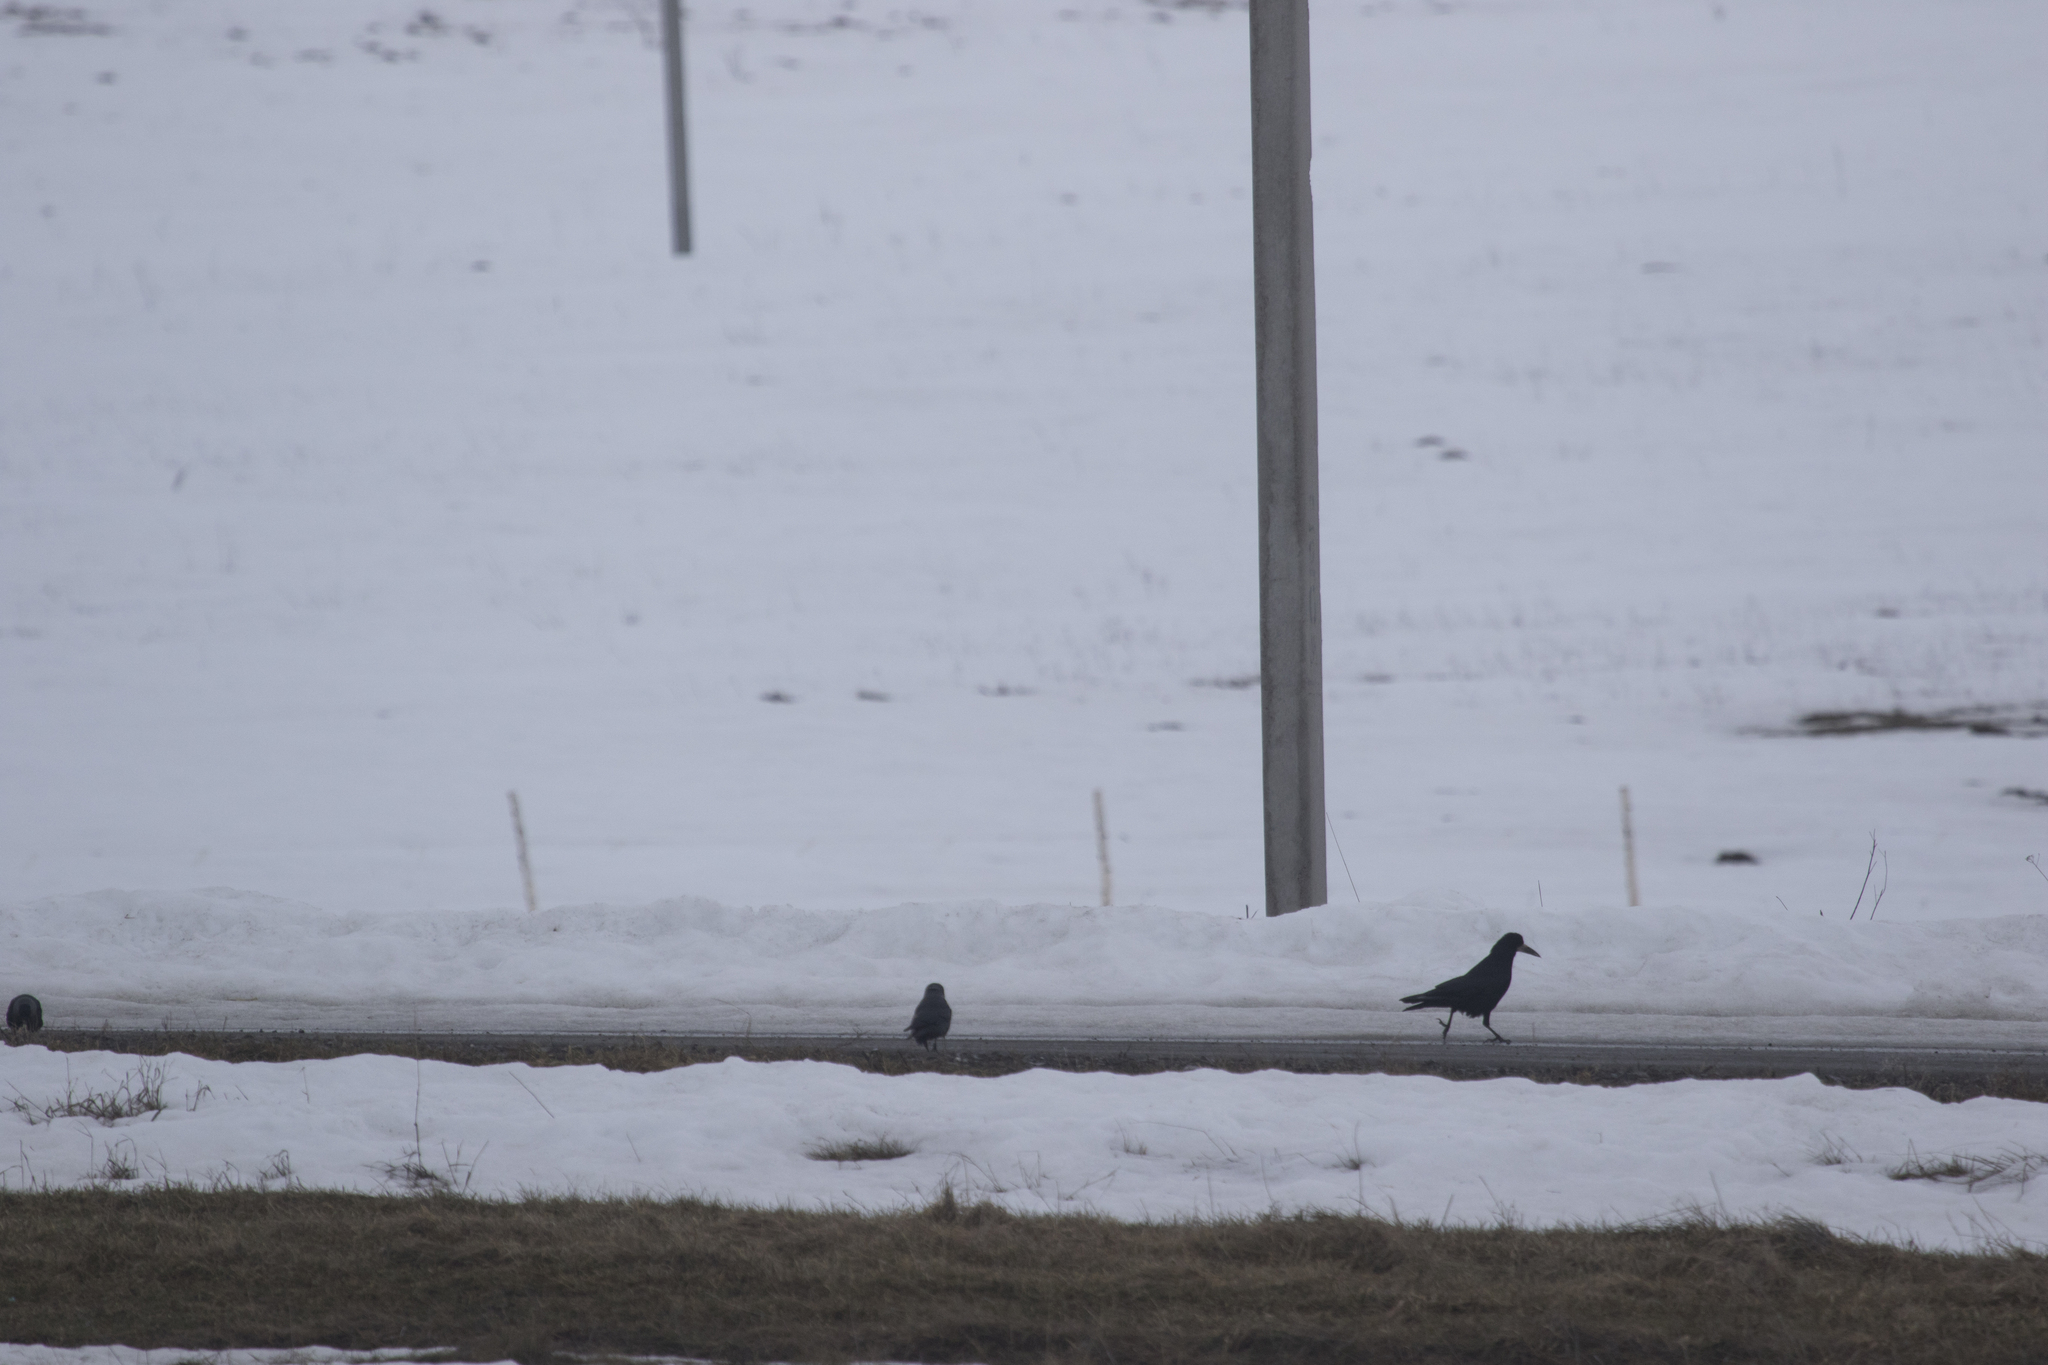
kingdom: Animalia
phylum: Chordata
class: Aves
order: Passeriformes
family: Corvidae
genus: Corvus
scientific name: Corvus frugilegus
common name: Rook
